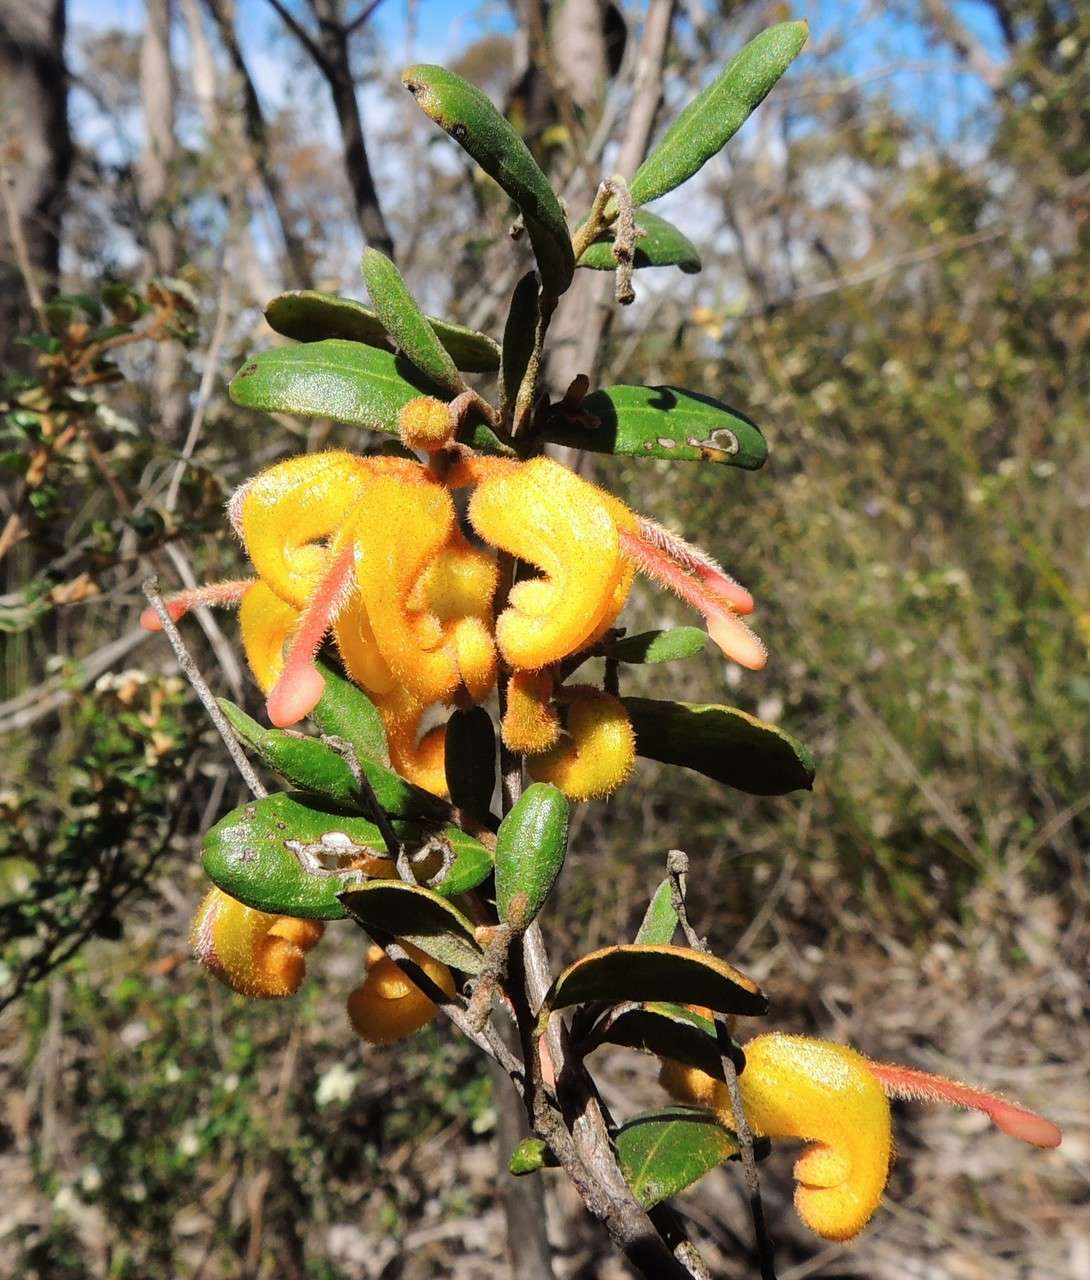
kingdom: Plantae
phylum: Tracheophyta
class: Magnoliopsida
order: Proteales
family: Proteaceae
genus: Grevillea
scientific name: Grevillea chrysophaea
